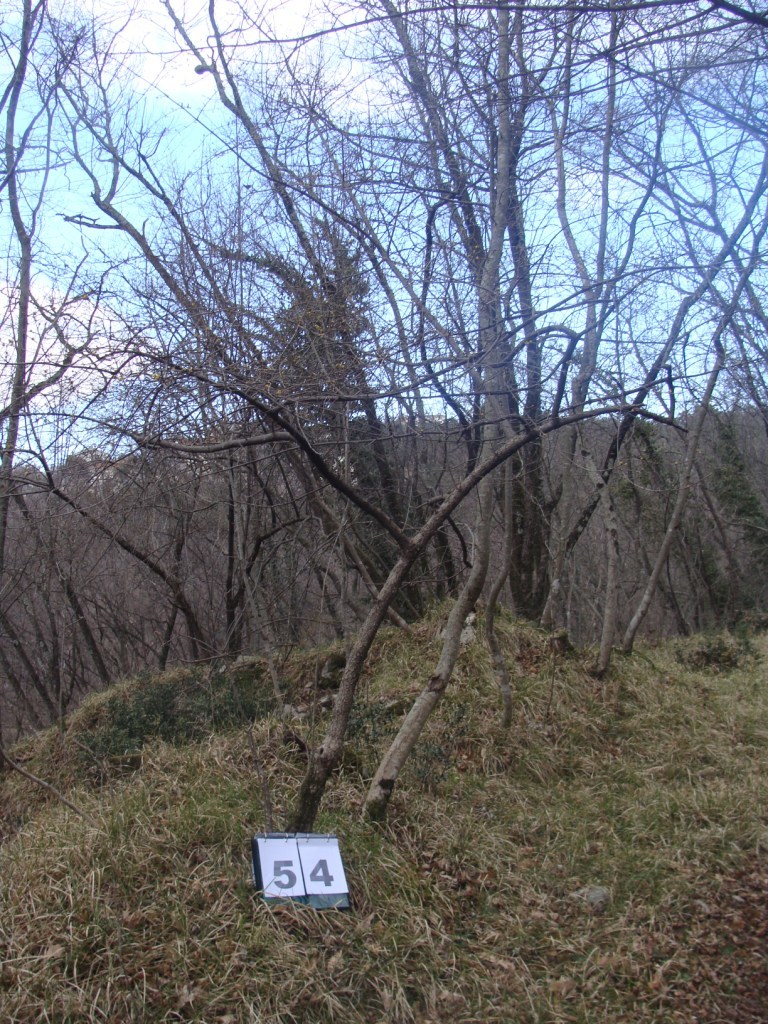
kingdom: Plantae
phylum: Tracheophyta
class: Magnoliopsida
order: Cornales
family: Cornaceae
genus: Cornus
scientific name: Cornus mas
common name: Cornelian-cherry
